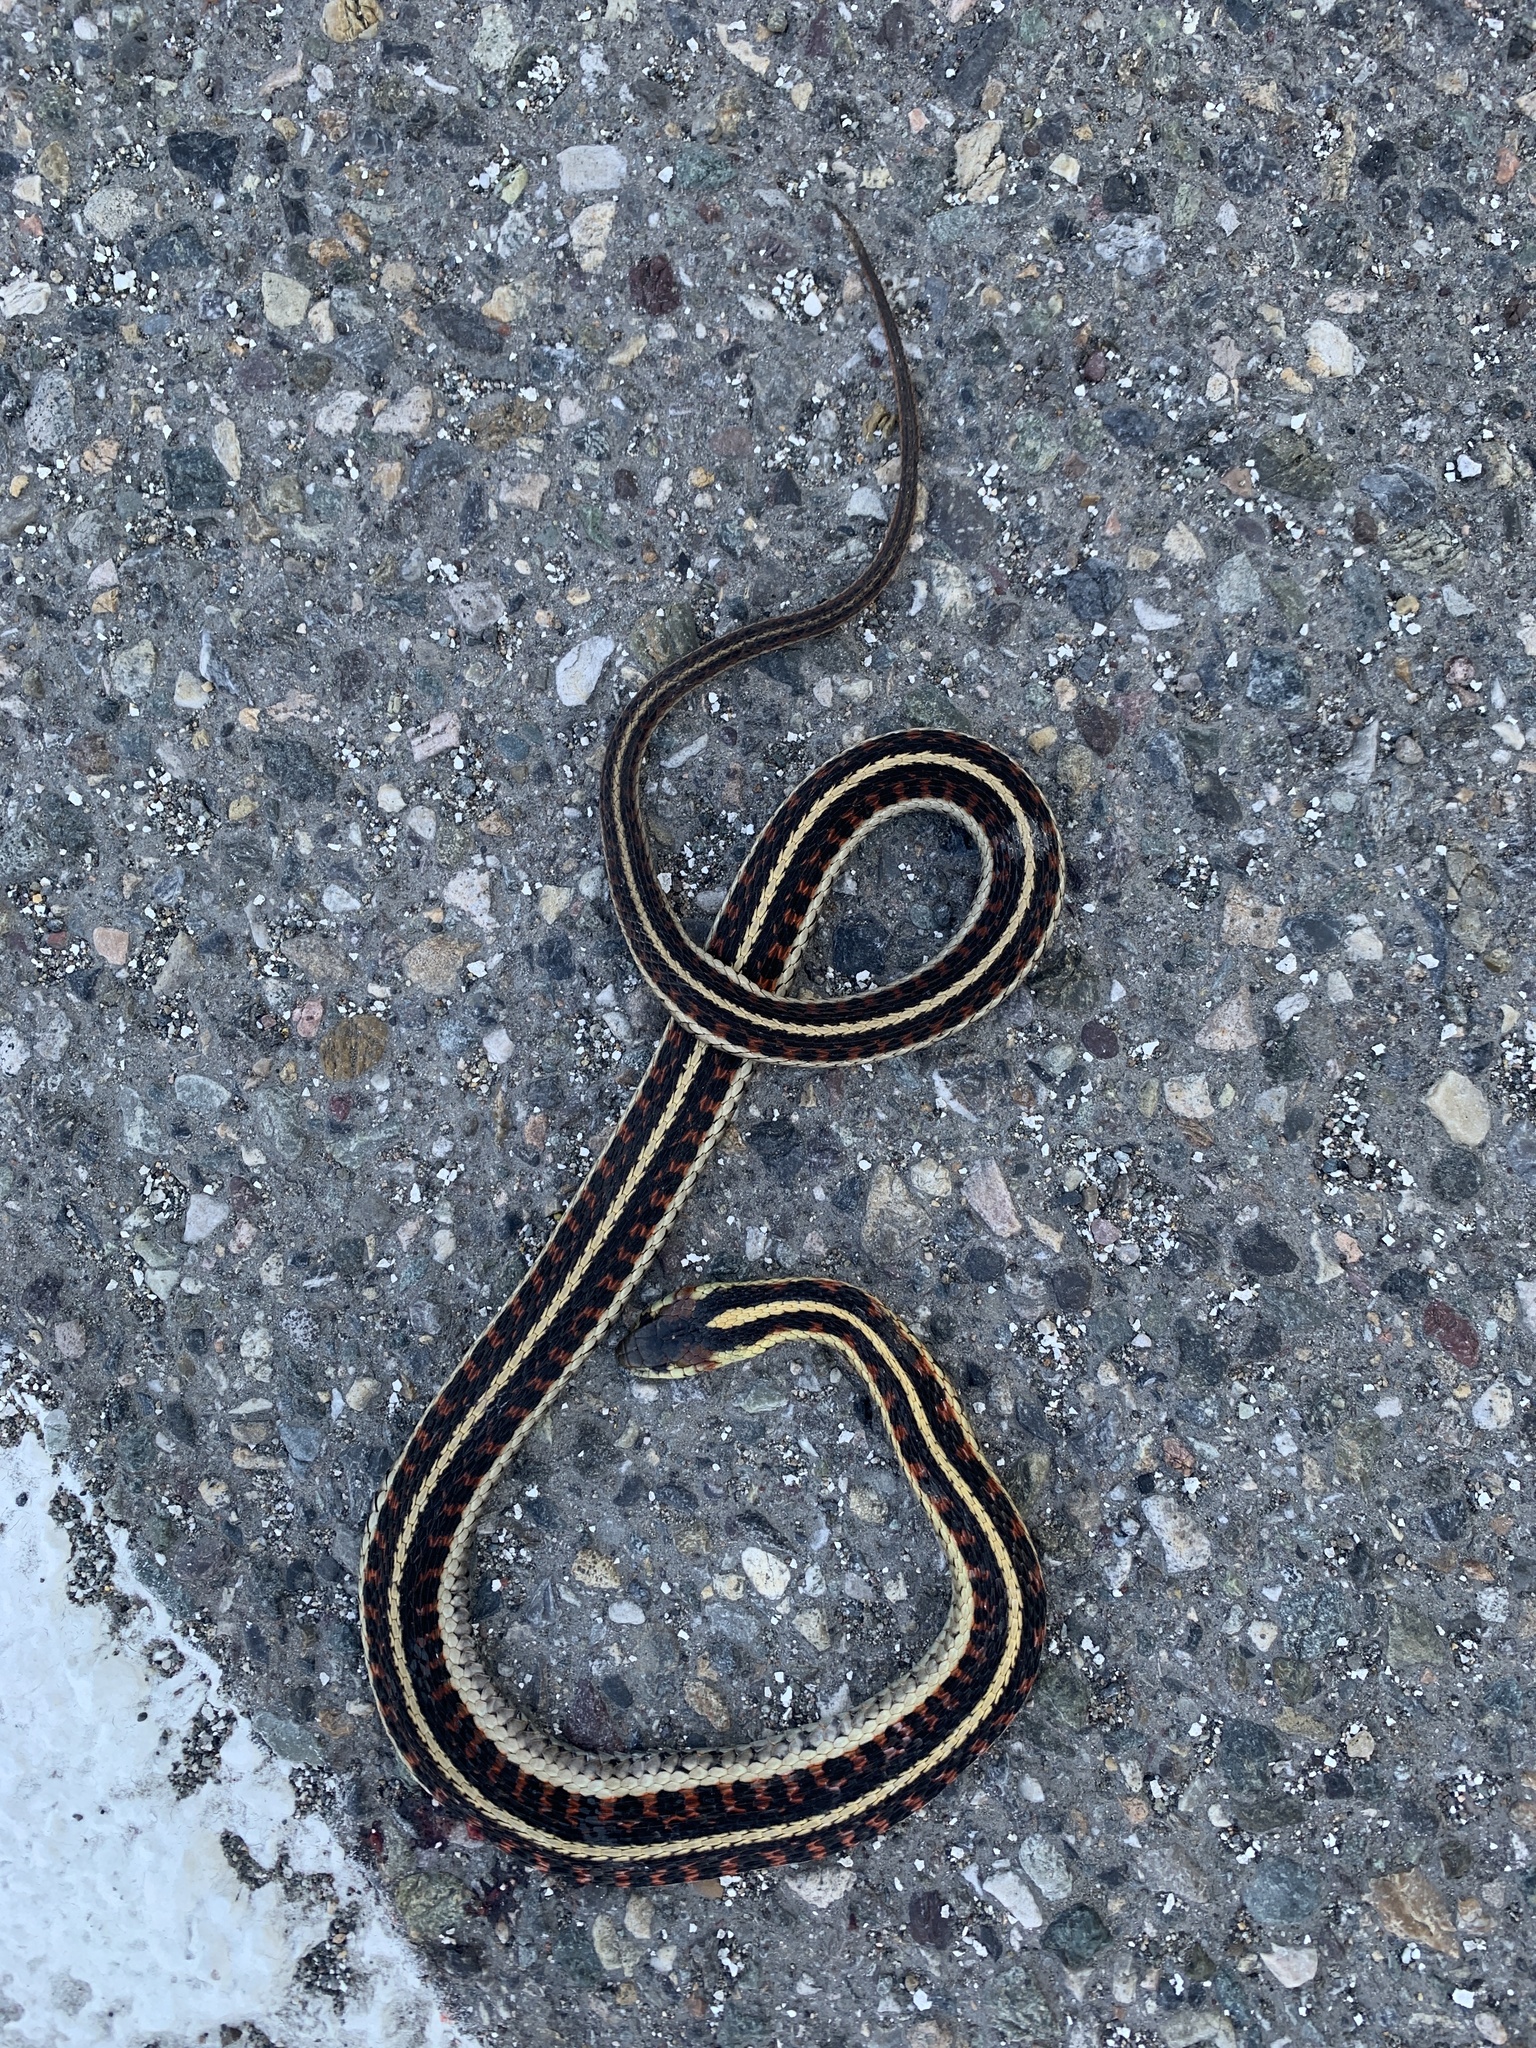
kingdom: Animalia
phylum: Chordata
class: Squamata
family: Colubridae
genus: Thamnophis
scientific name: Thamnophis sirtalis
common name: Common garter snake
